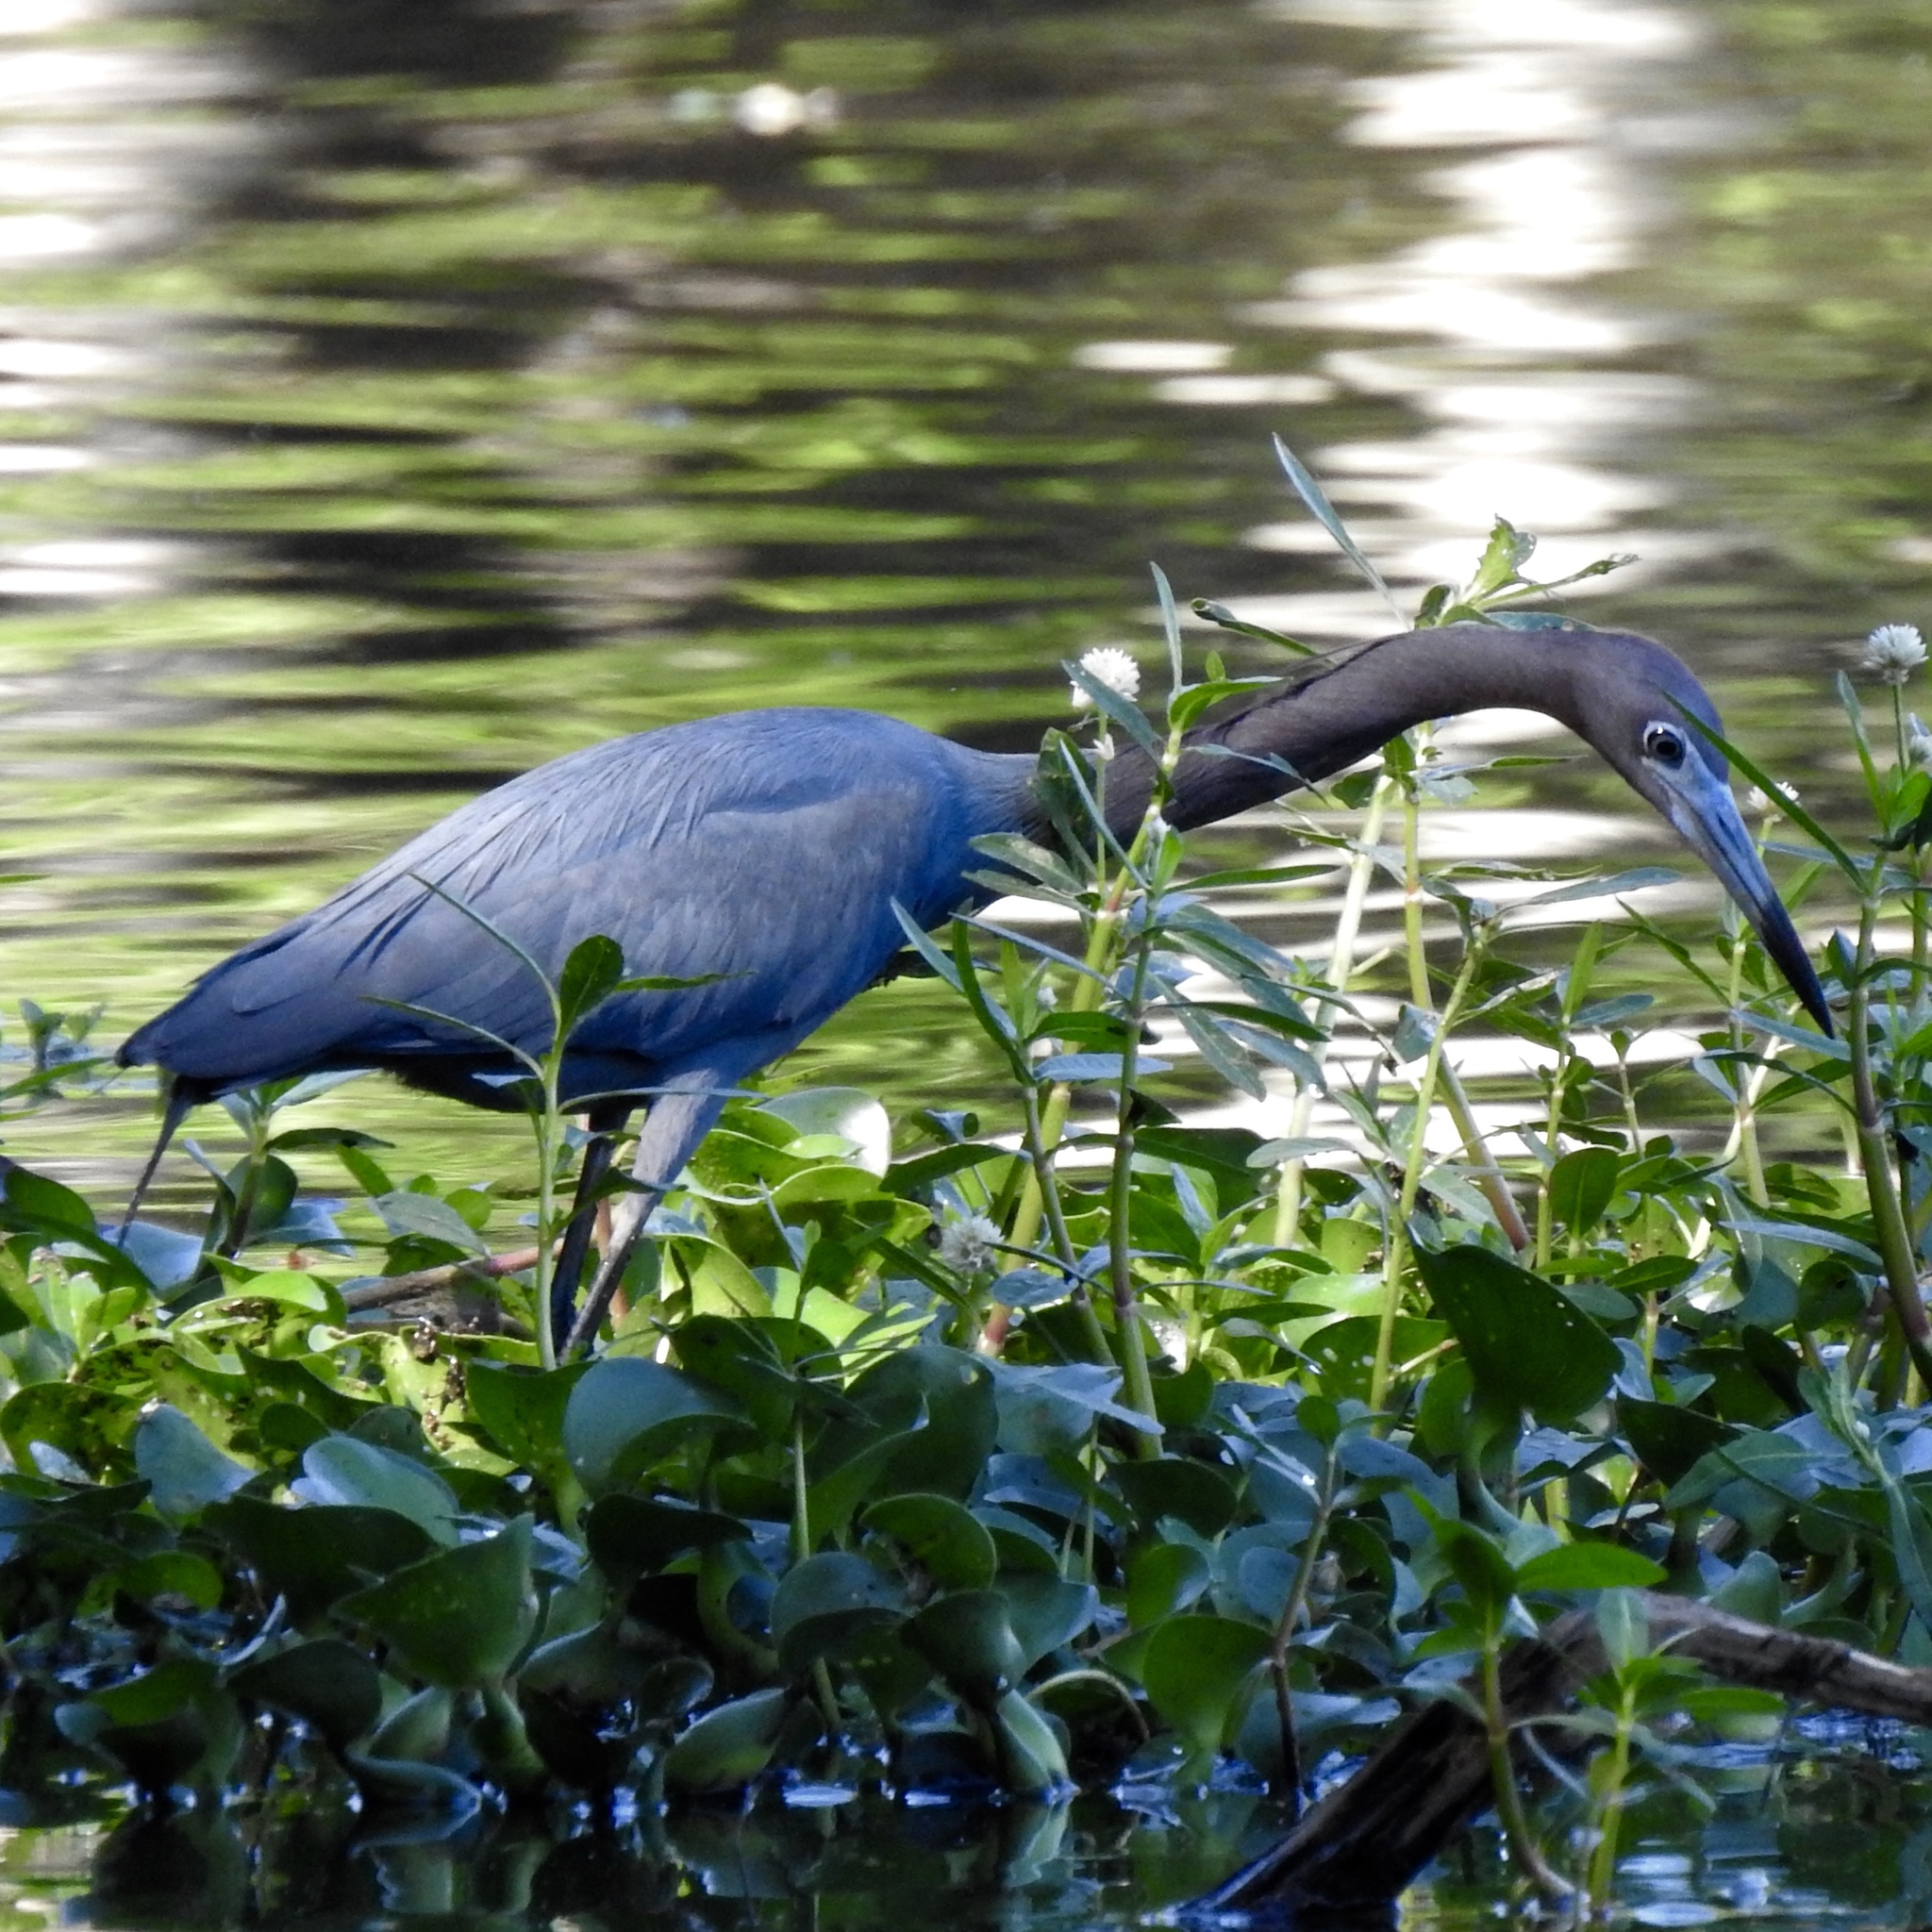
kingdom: Animalia
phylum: Chordata
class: Aves
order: Pelecaniformes
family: Ardeidae
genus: Egretta
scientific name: Egretta caerulea
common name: Little blue heron
